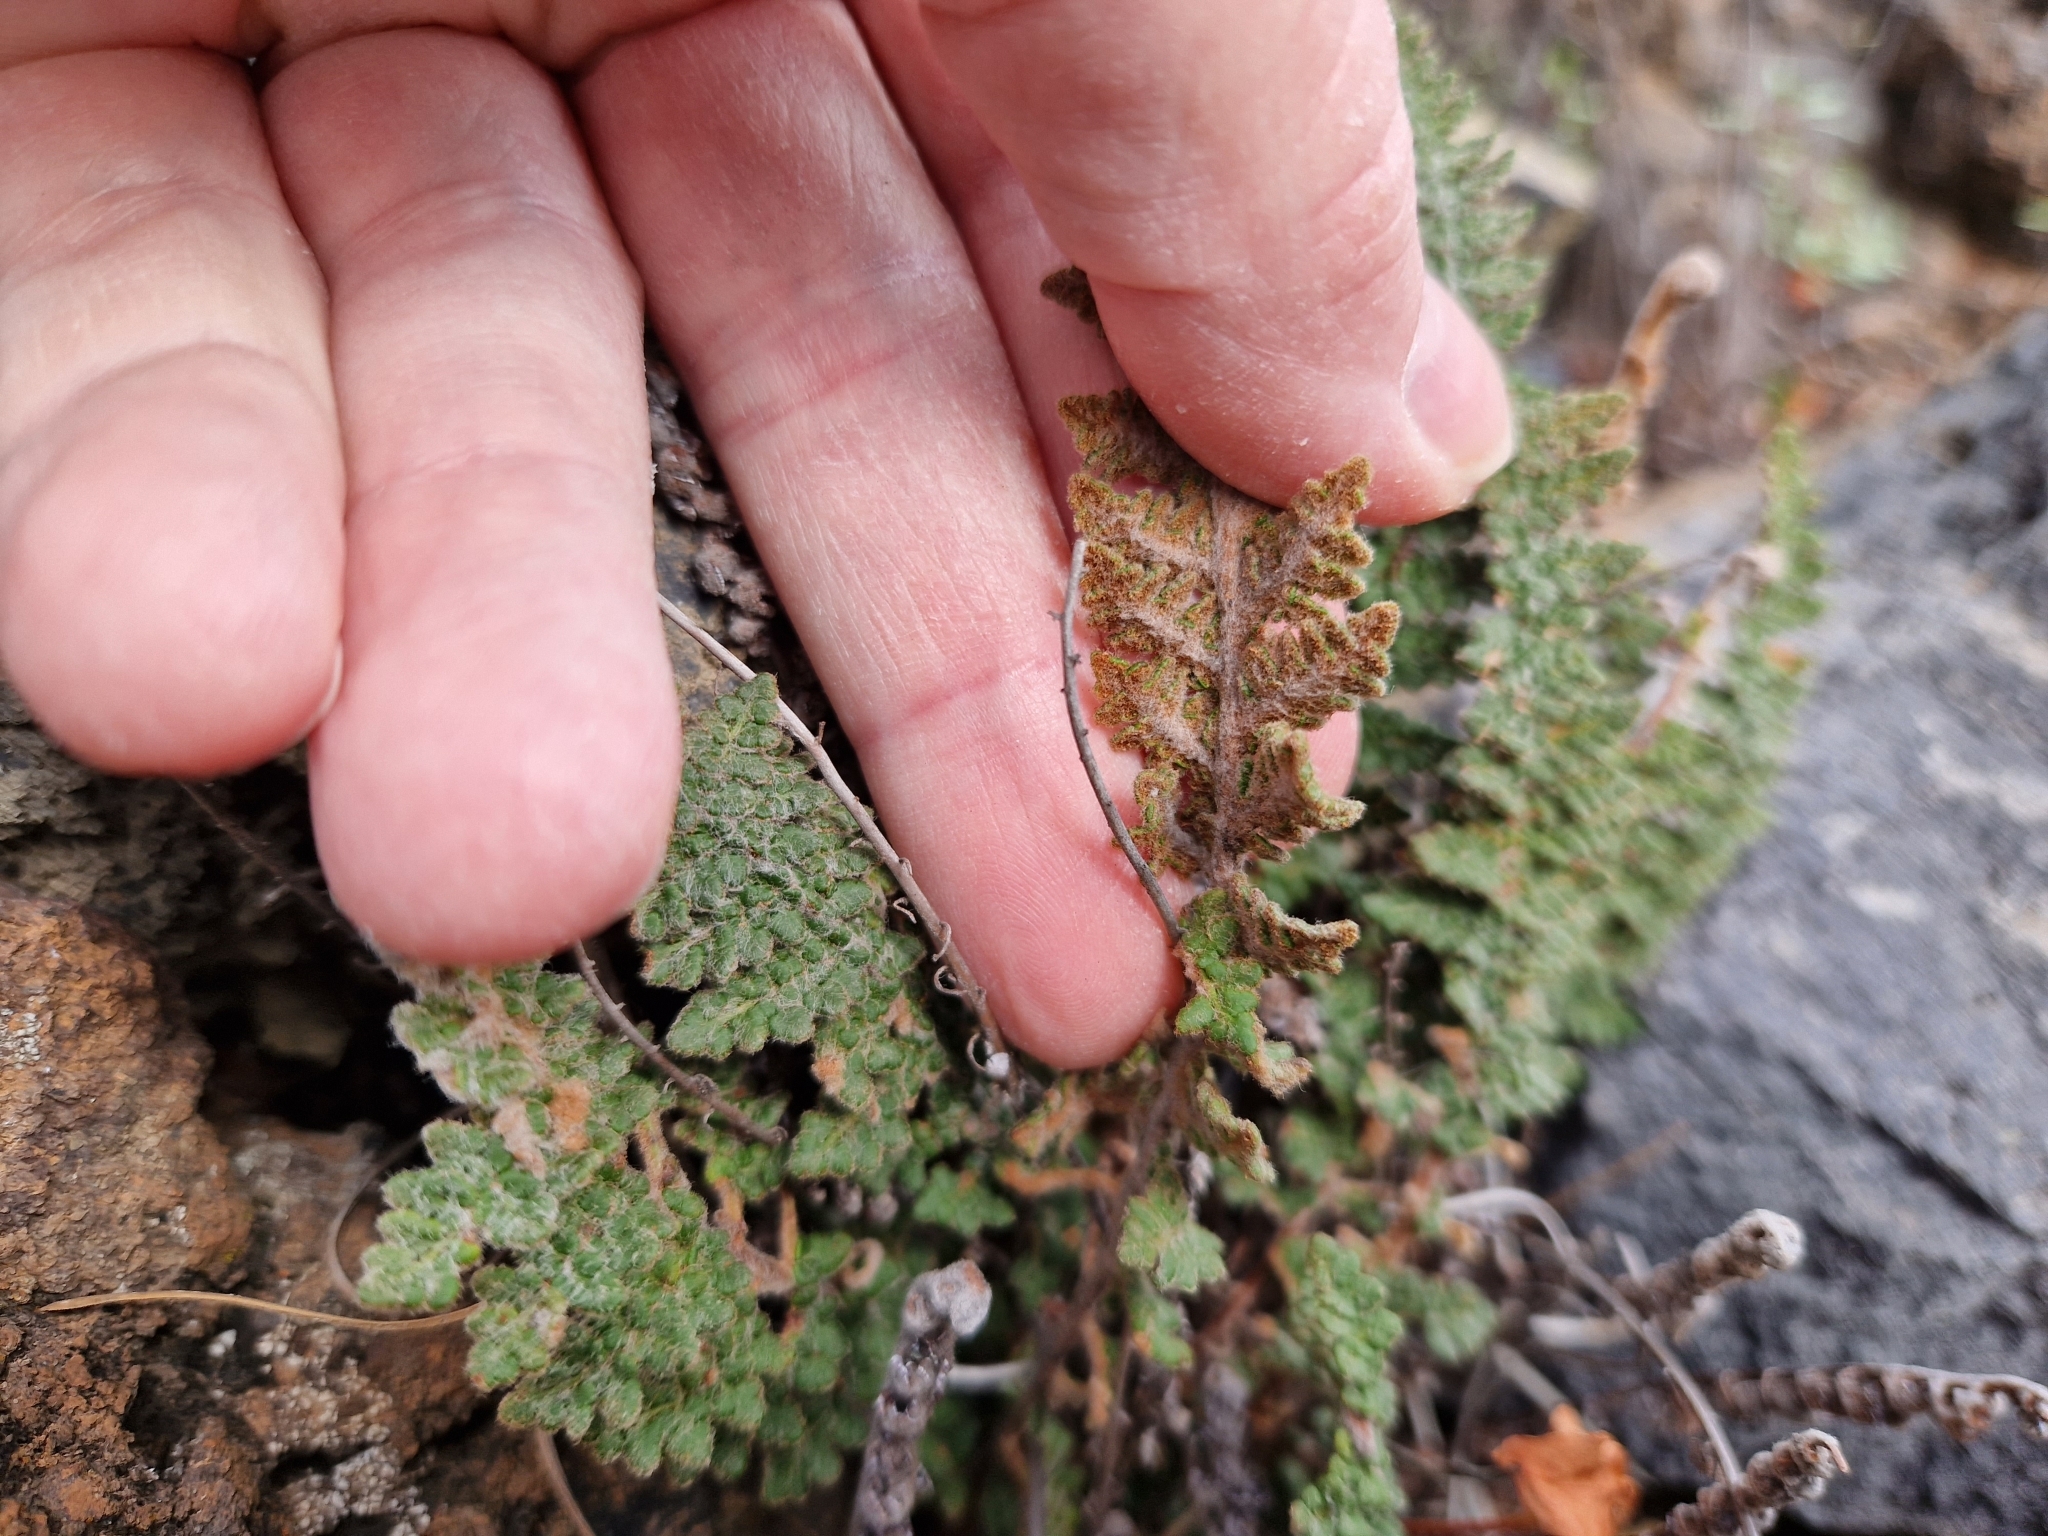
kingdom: Plantae
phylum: Tracheophyta
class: Polypodiopsida
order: Polypodiales
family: Pteridaceae
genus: Cosentinia
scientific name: Cosentinia vellea
